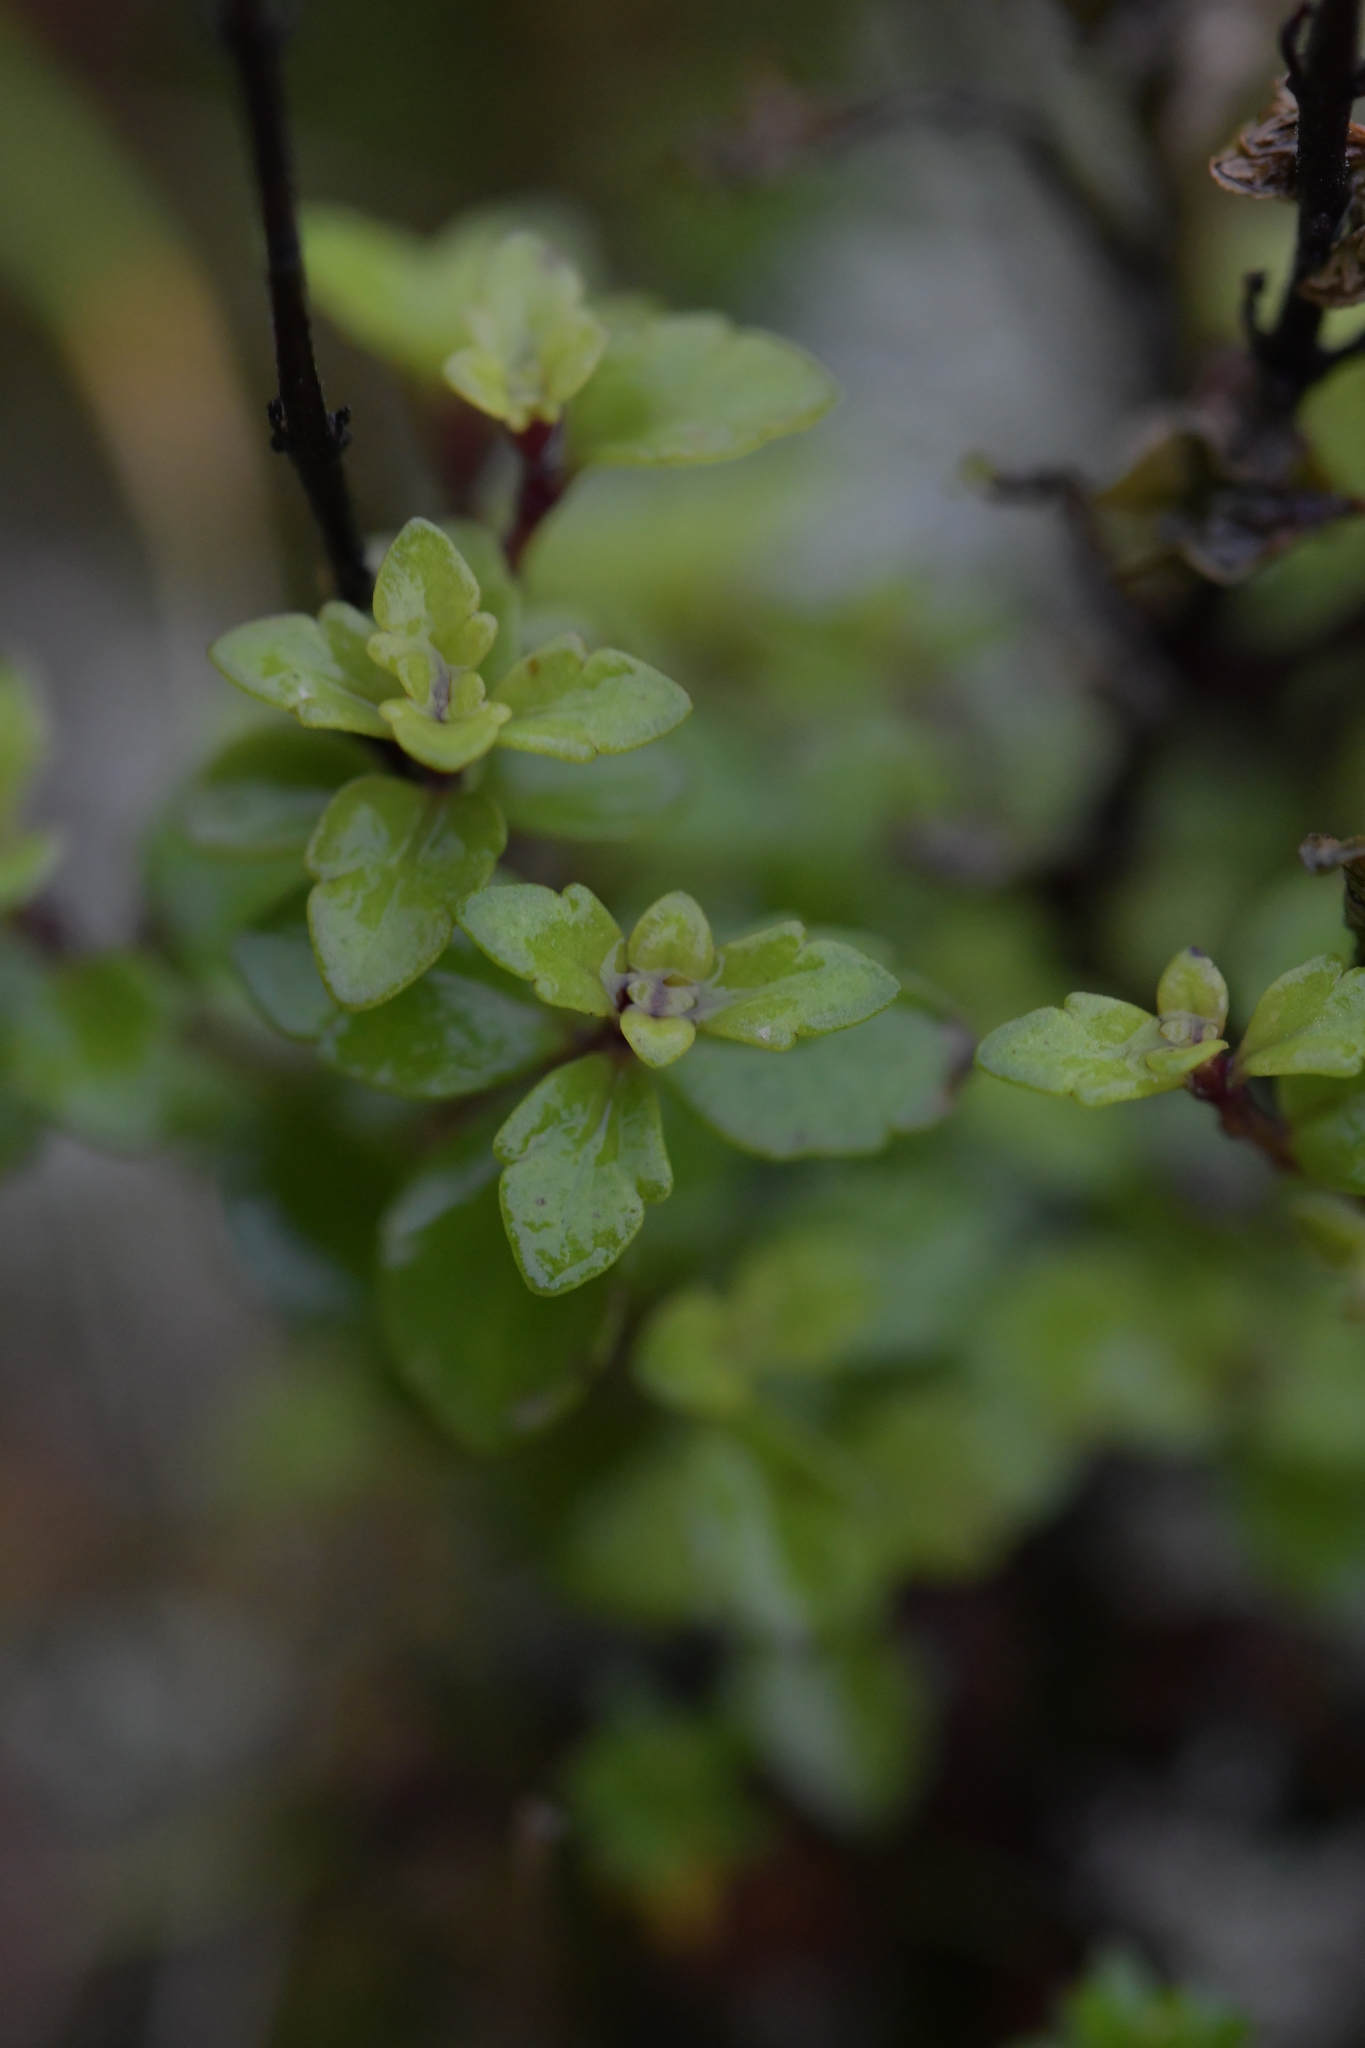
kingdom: Plantae
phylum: Tracheophyta
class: Magnoliopsida
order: Lamiales
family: Orobanchaceae
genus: Euphrasia
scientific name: Euphrasia cuneata
